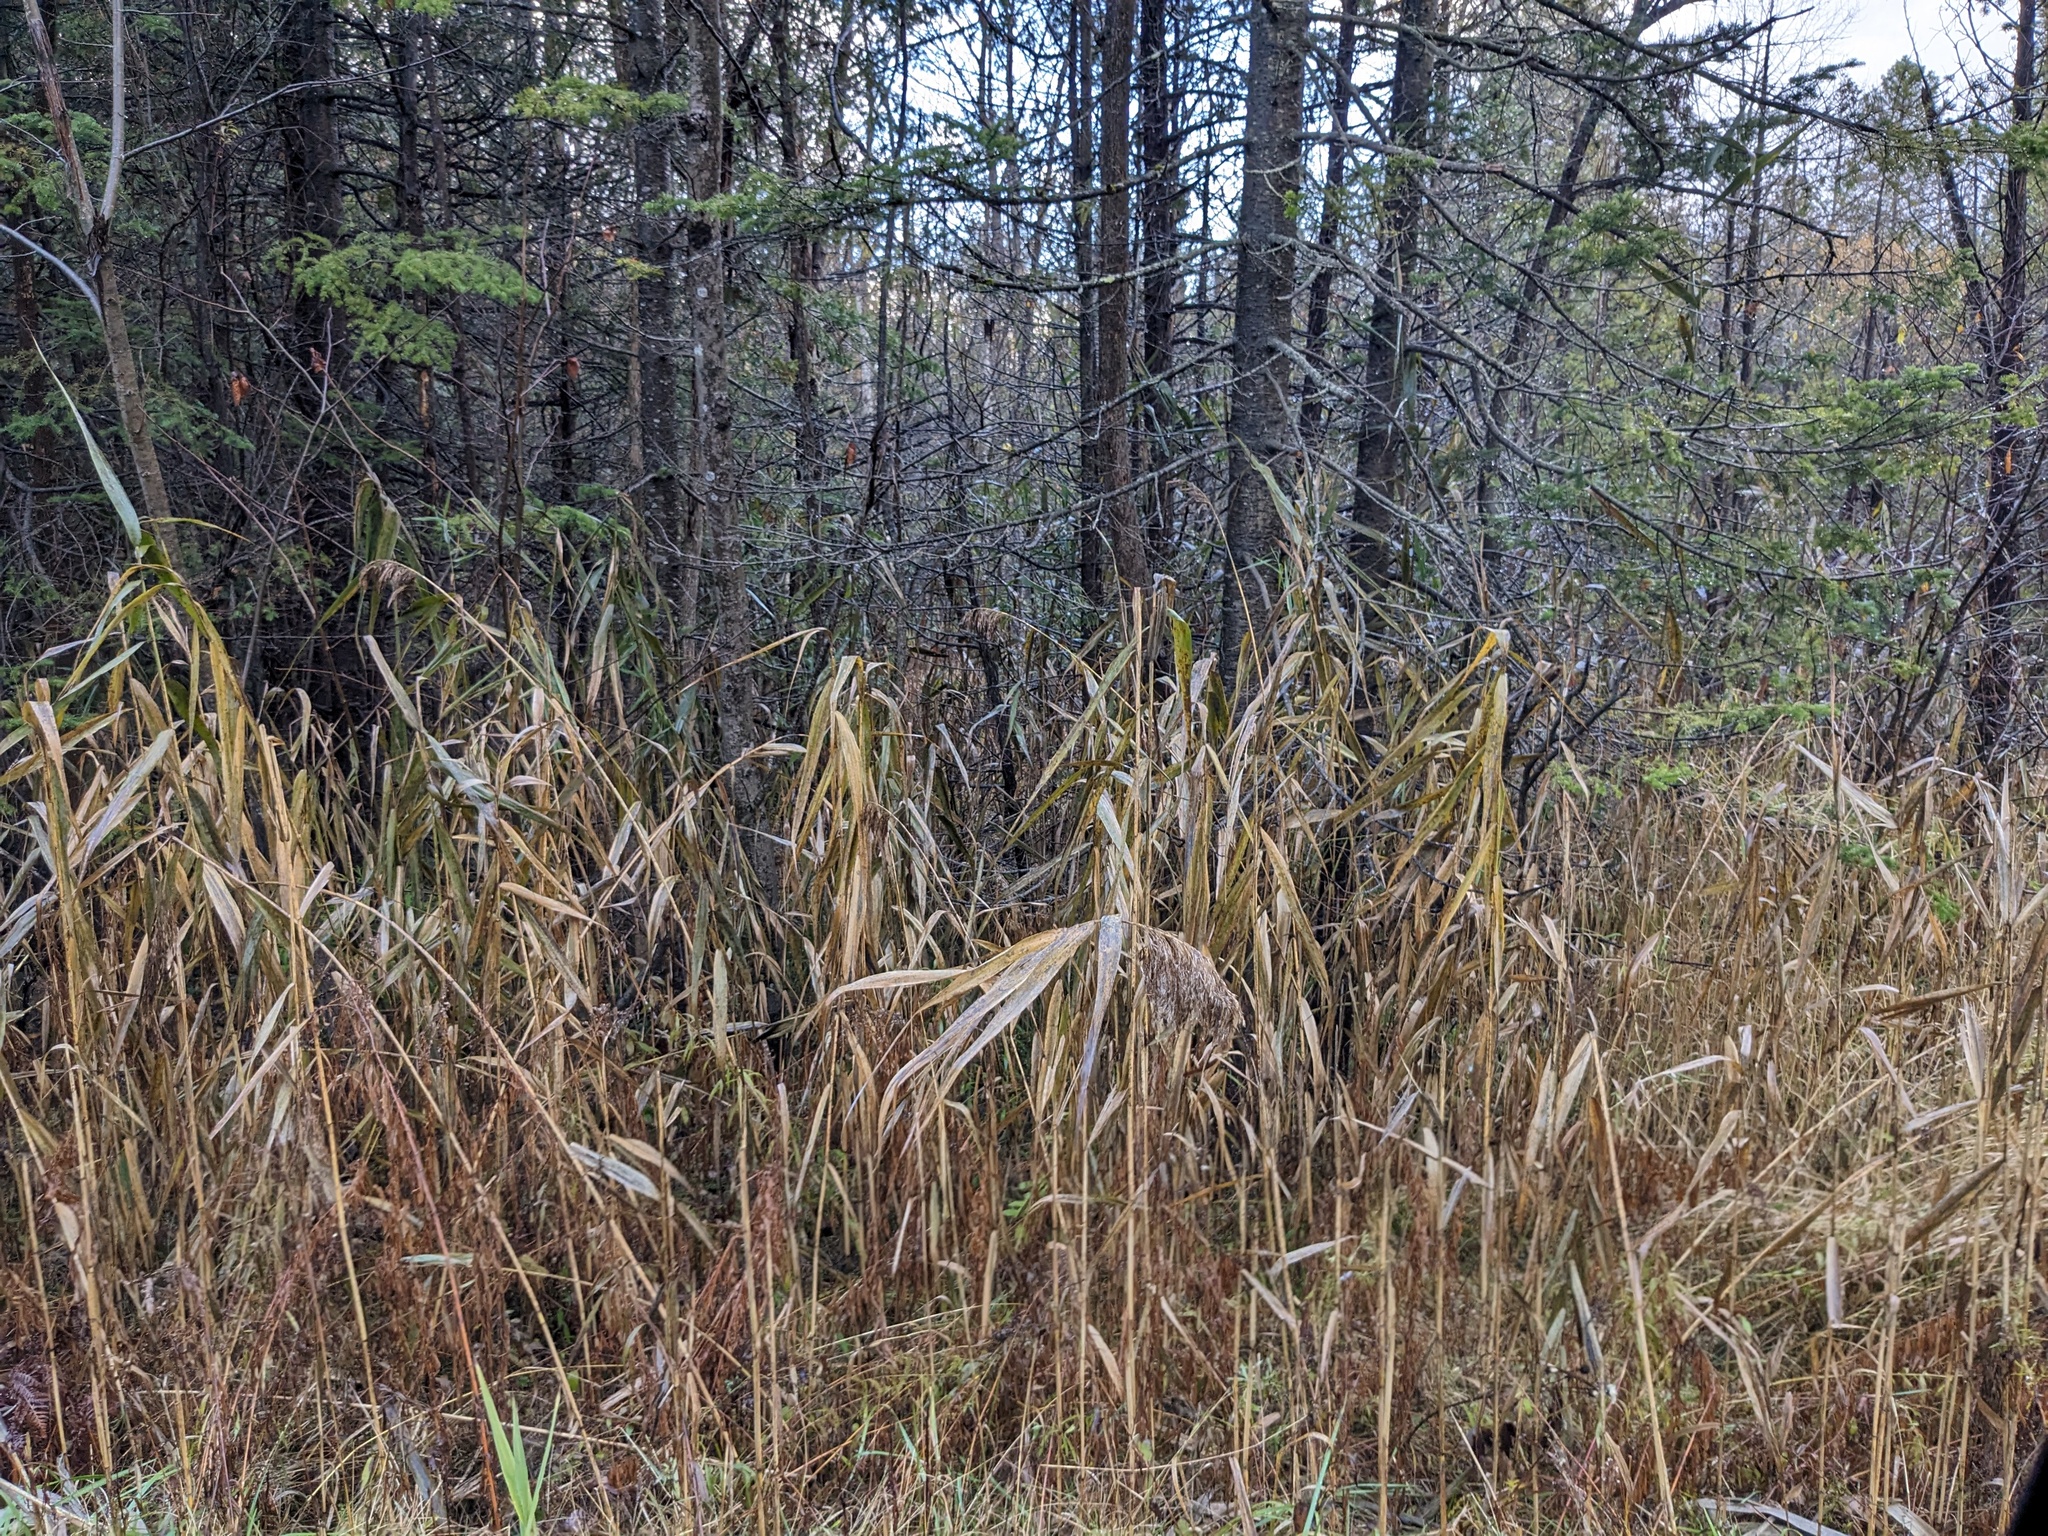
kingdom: Plantae
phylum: Tracheophyta
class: Liliopsida
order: Poales
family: Poaceae
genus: Phragmites
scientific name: Phragmites australis
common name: Common reed
